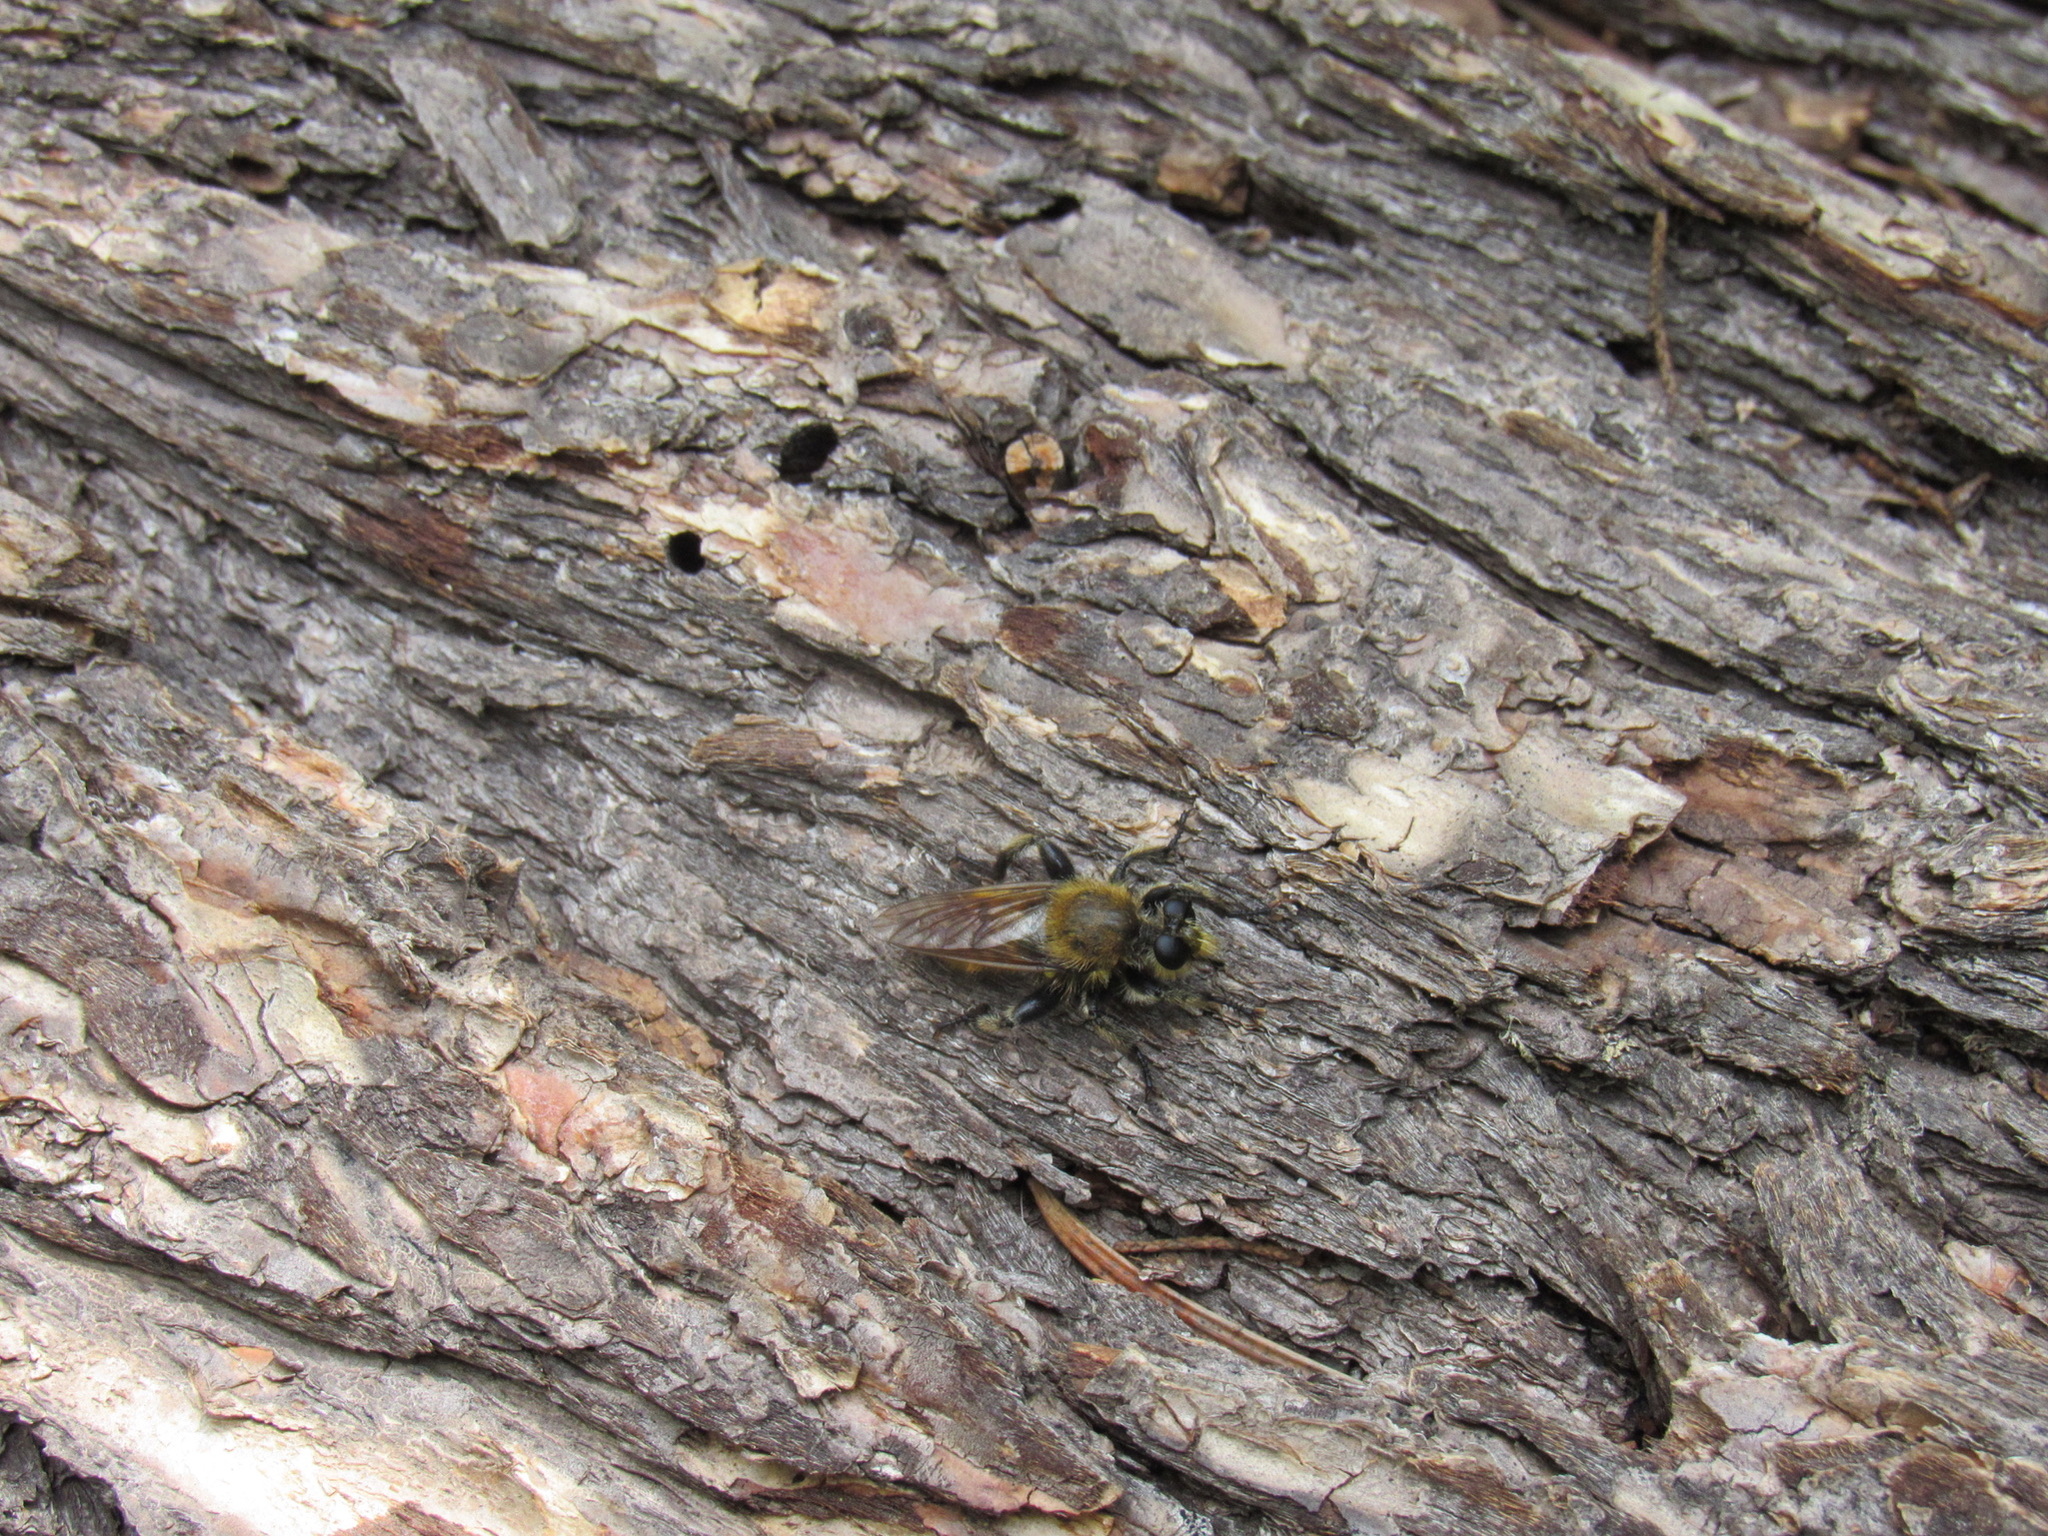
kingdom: Animalia
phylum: Arthropoda
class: Insecta
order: Diptera
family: Asilidae
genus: Laphria
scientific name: Laphria engelhardti
